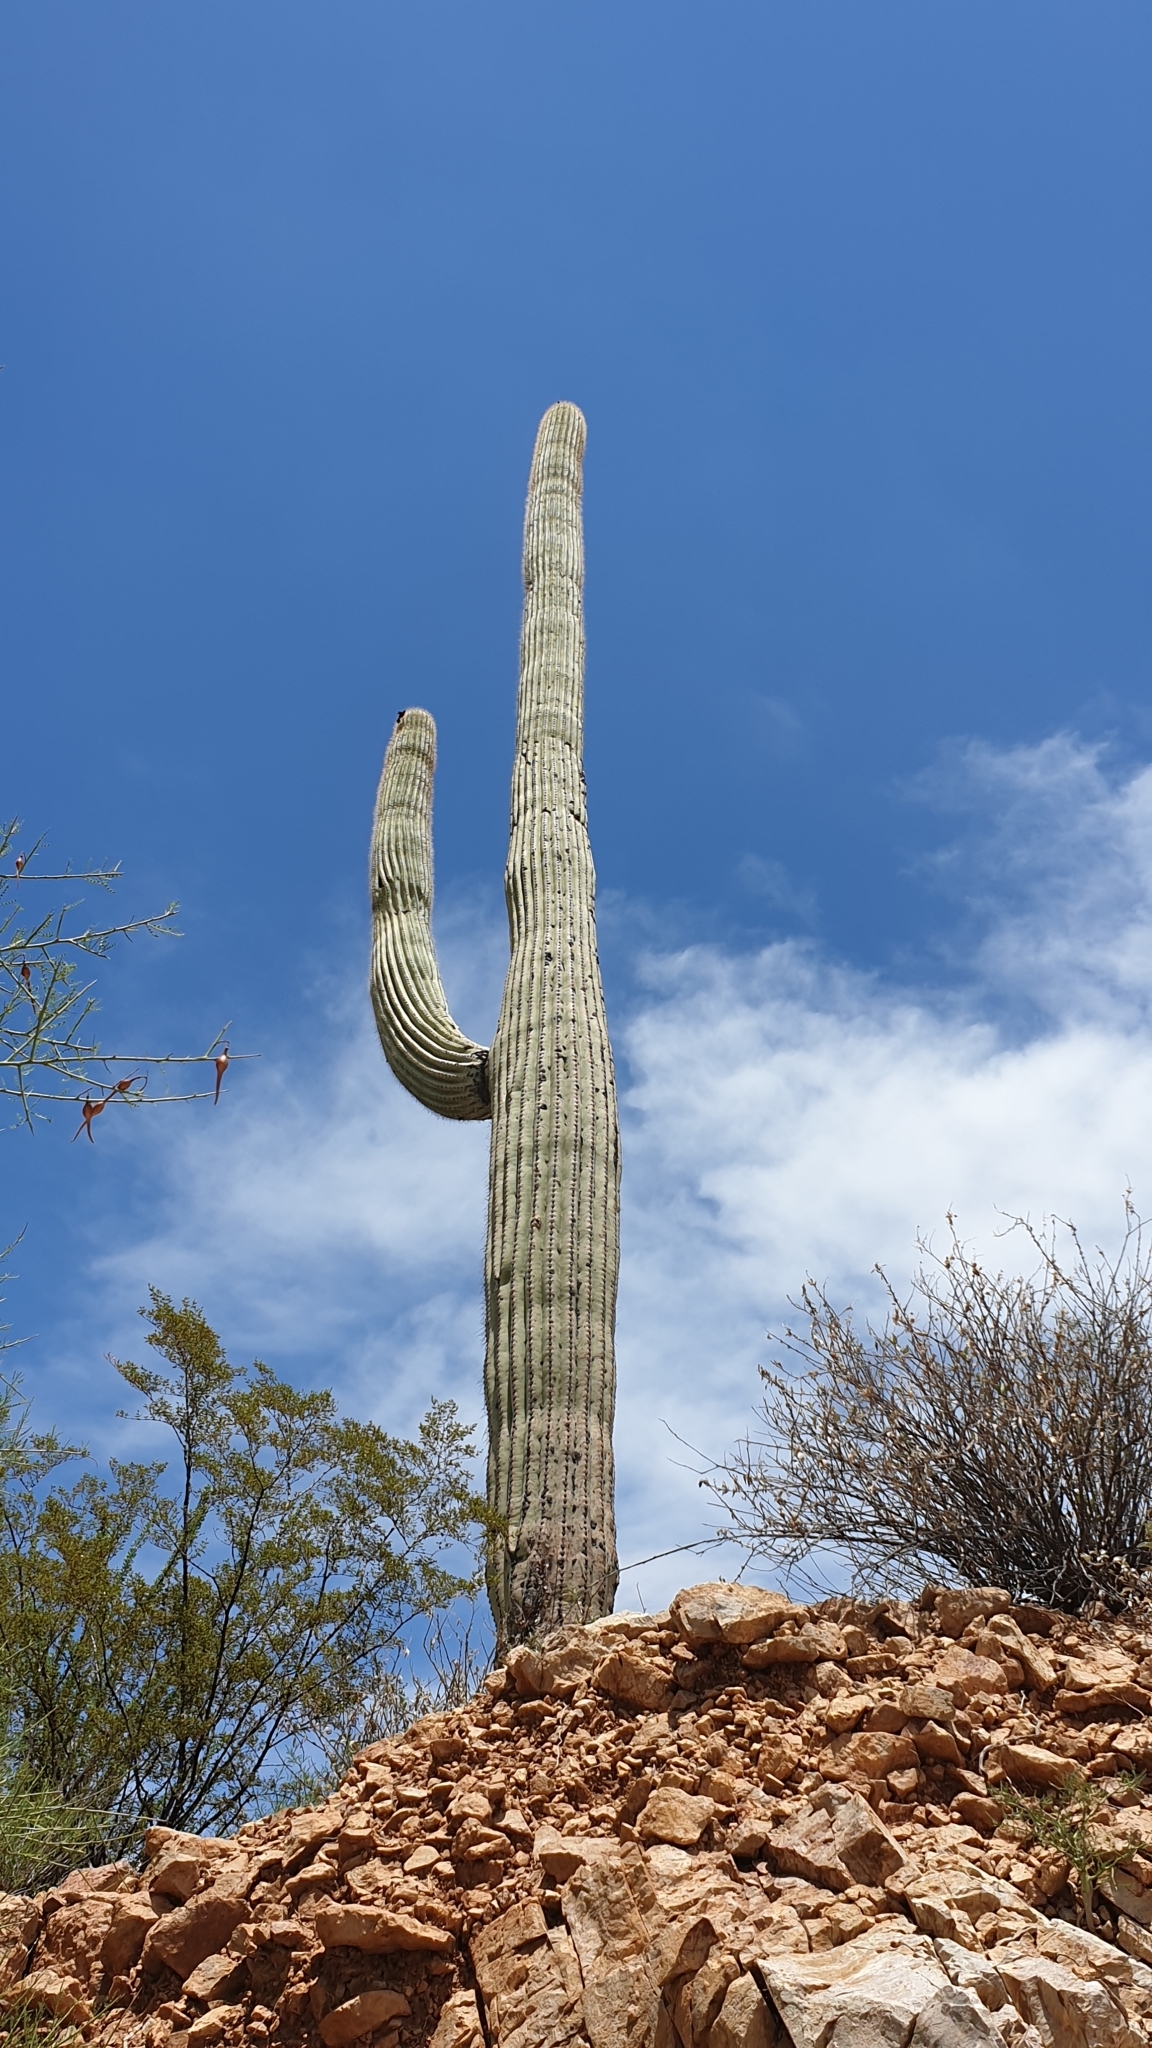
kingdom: Plantae
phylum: Tracheophyta
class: Magnoliopsida
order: Caryophyllales
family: Cactaceae
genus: Carnegiea
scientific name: Carnegiea gigantea
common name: Saguaro
